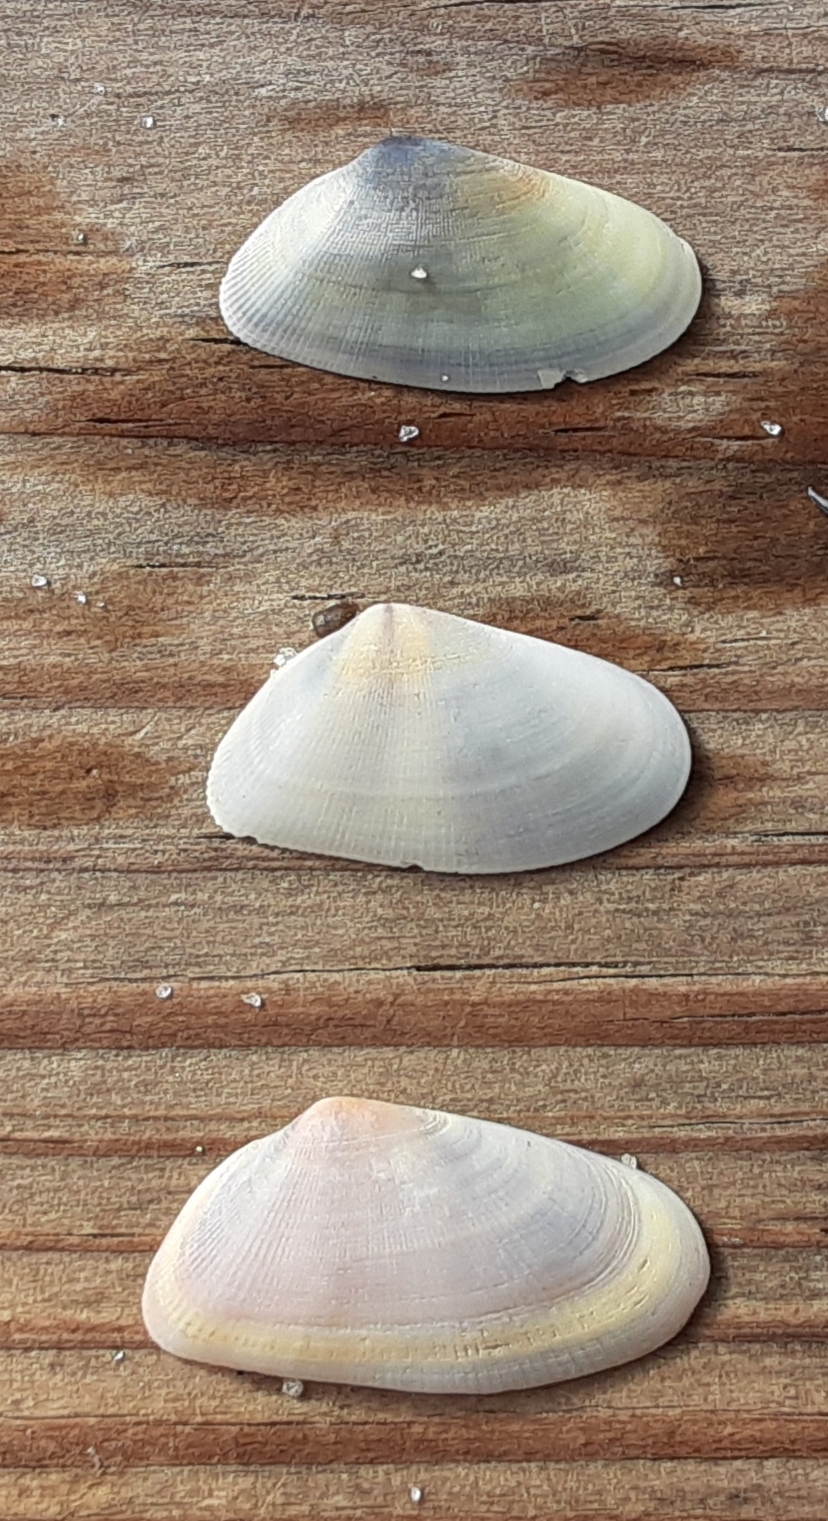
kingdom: Animalia
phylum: Mollusca
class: Bivalvia
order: Cardiida
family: Donacidae
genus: Donax
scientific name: Donax variabilis
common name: Butterfly shell
